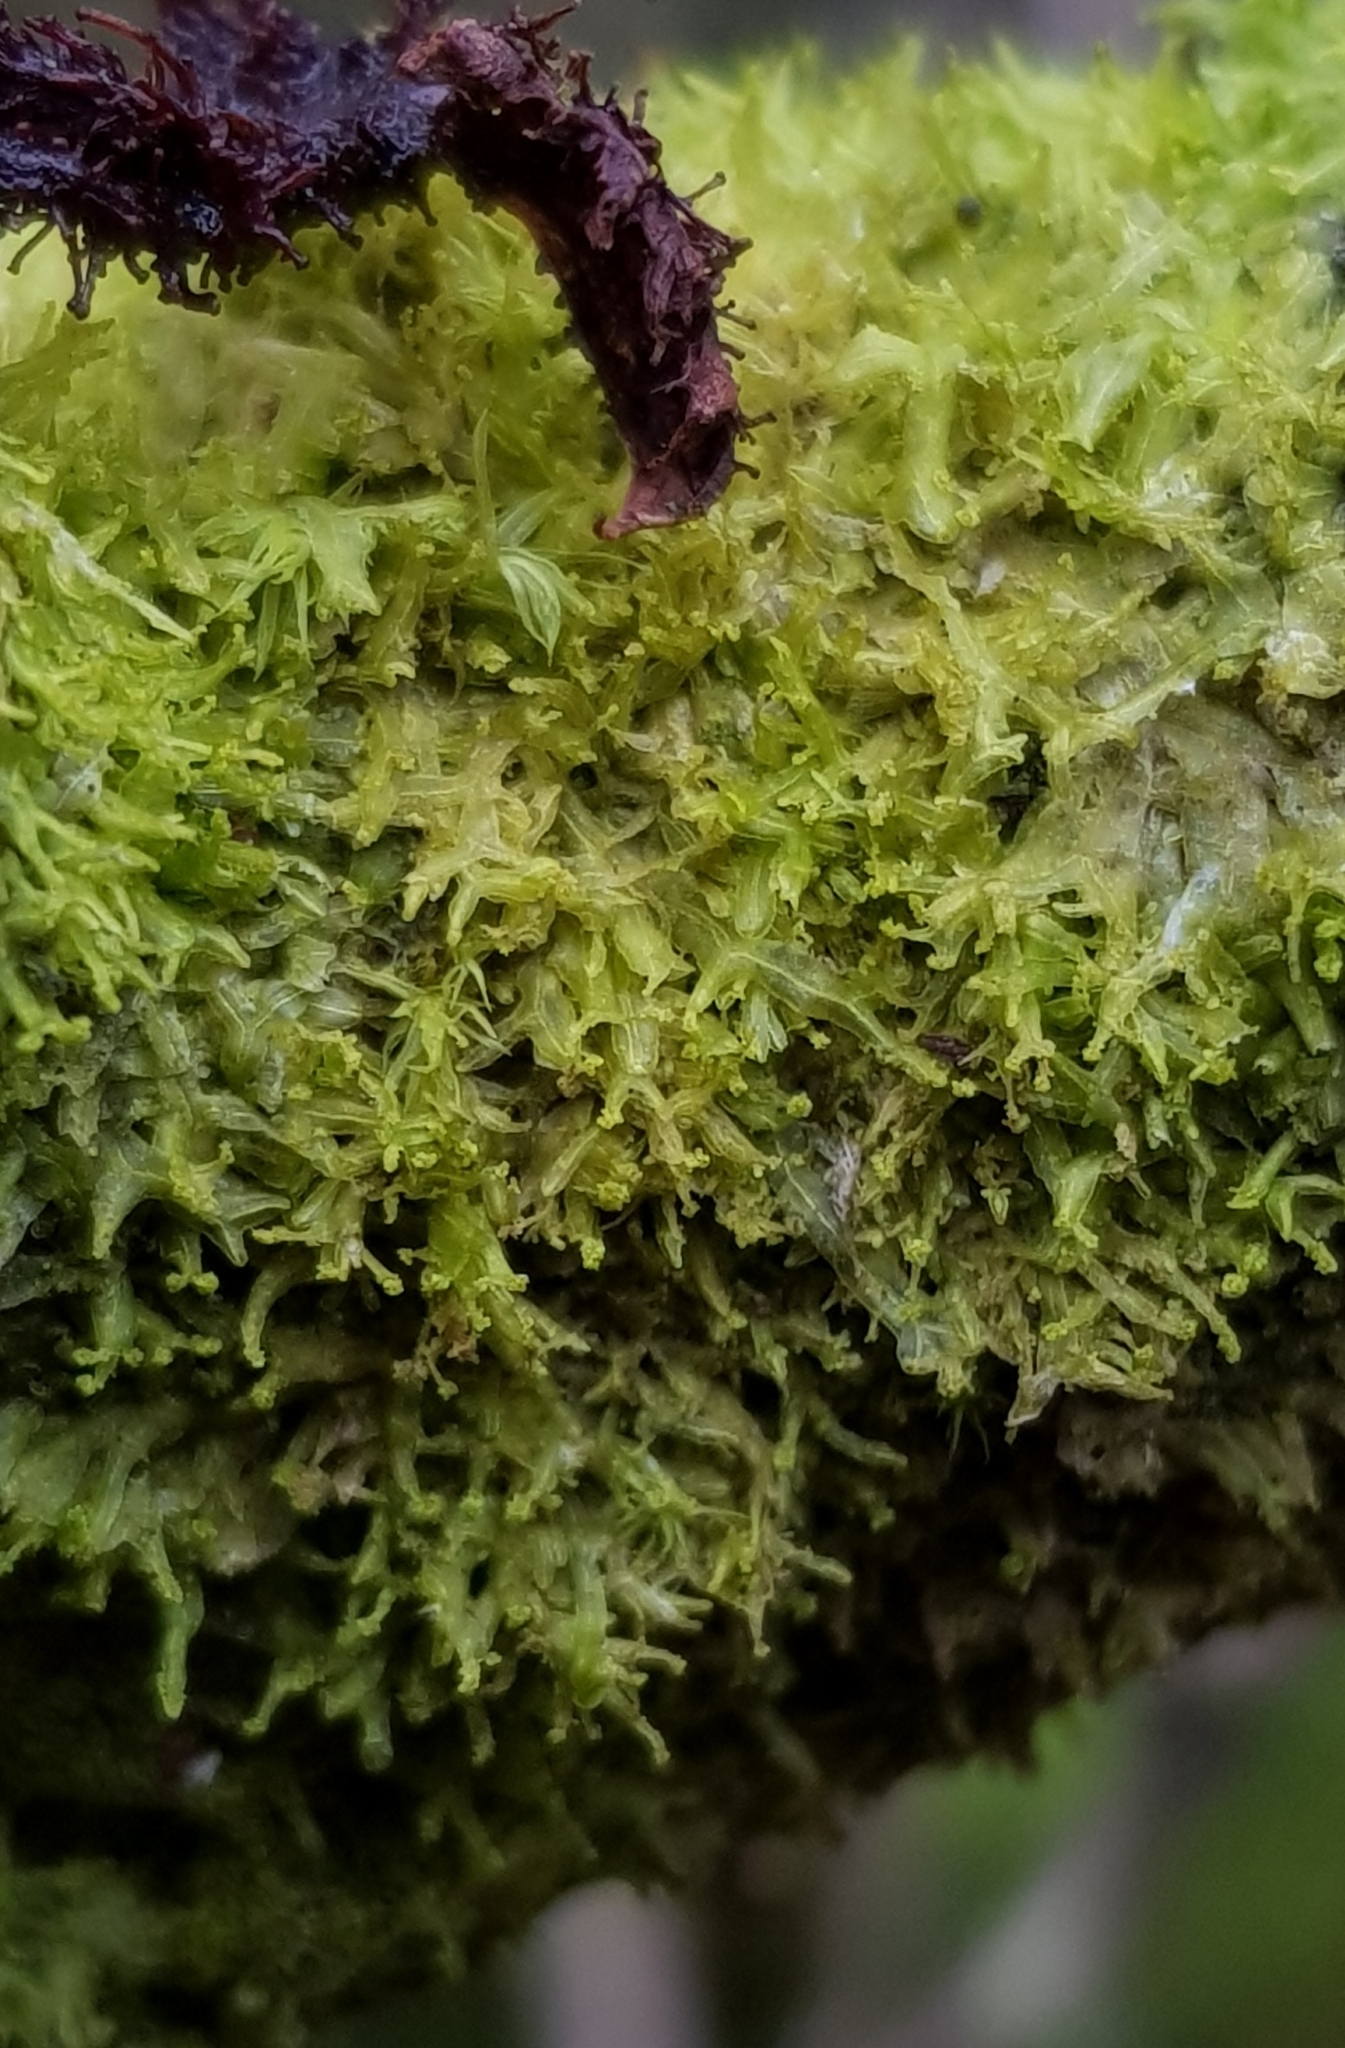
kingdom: Plantae
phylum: Marchantiophyta
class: Jungermanniopsida
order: Metzgeriales
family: Metzgeriaceae
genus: Metzgeria
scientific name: Metzgeria violacea
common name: Blueish veilwort
